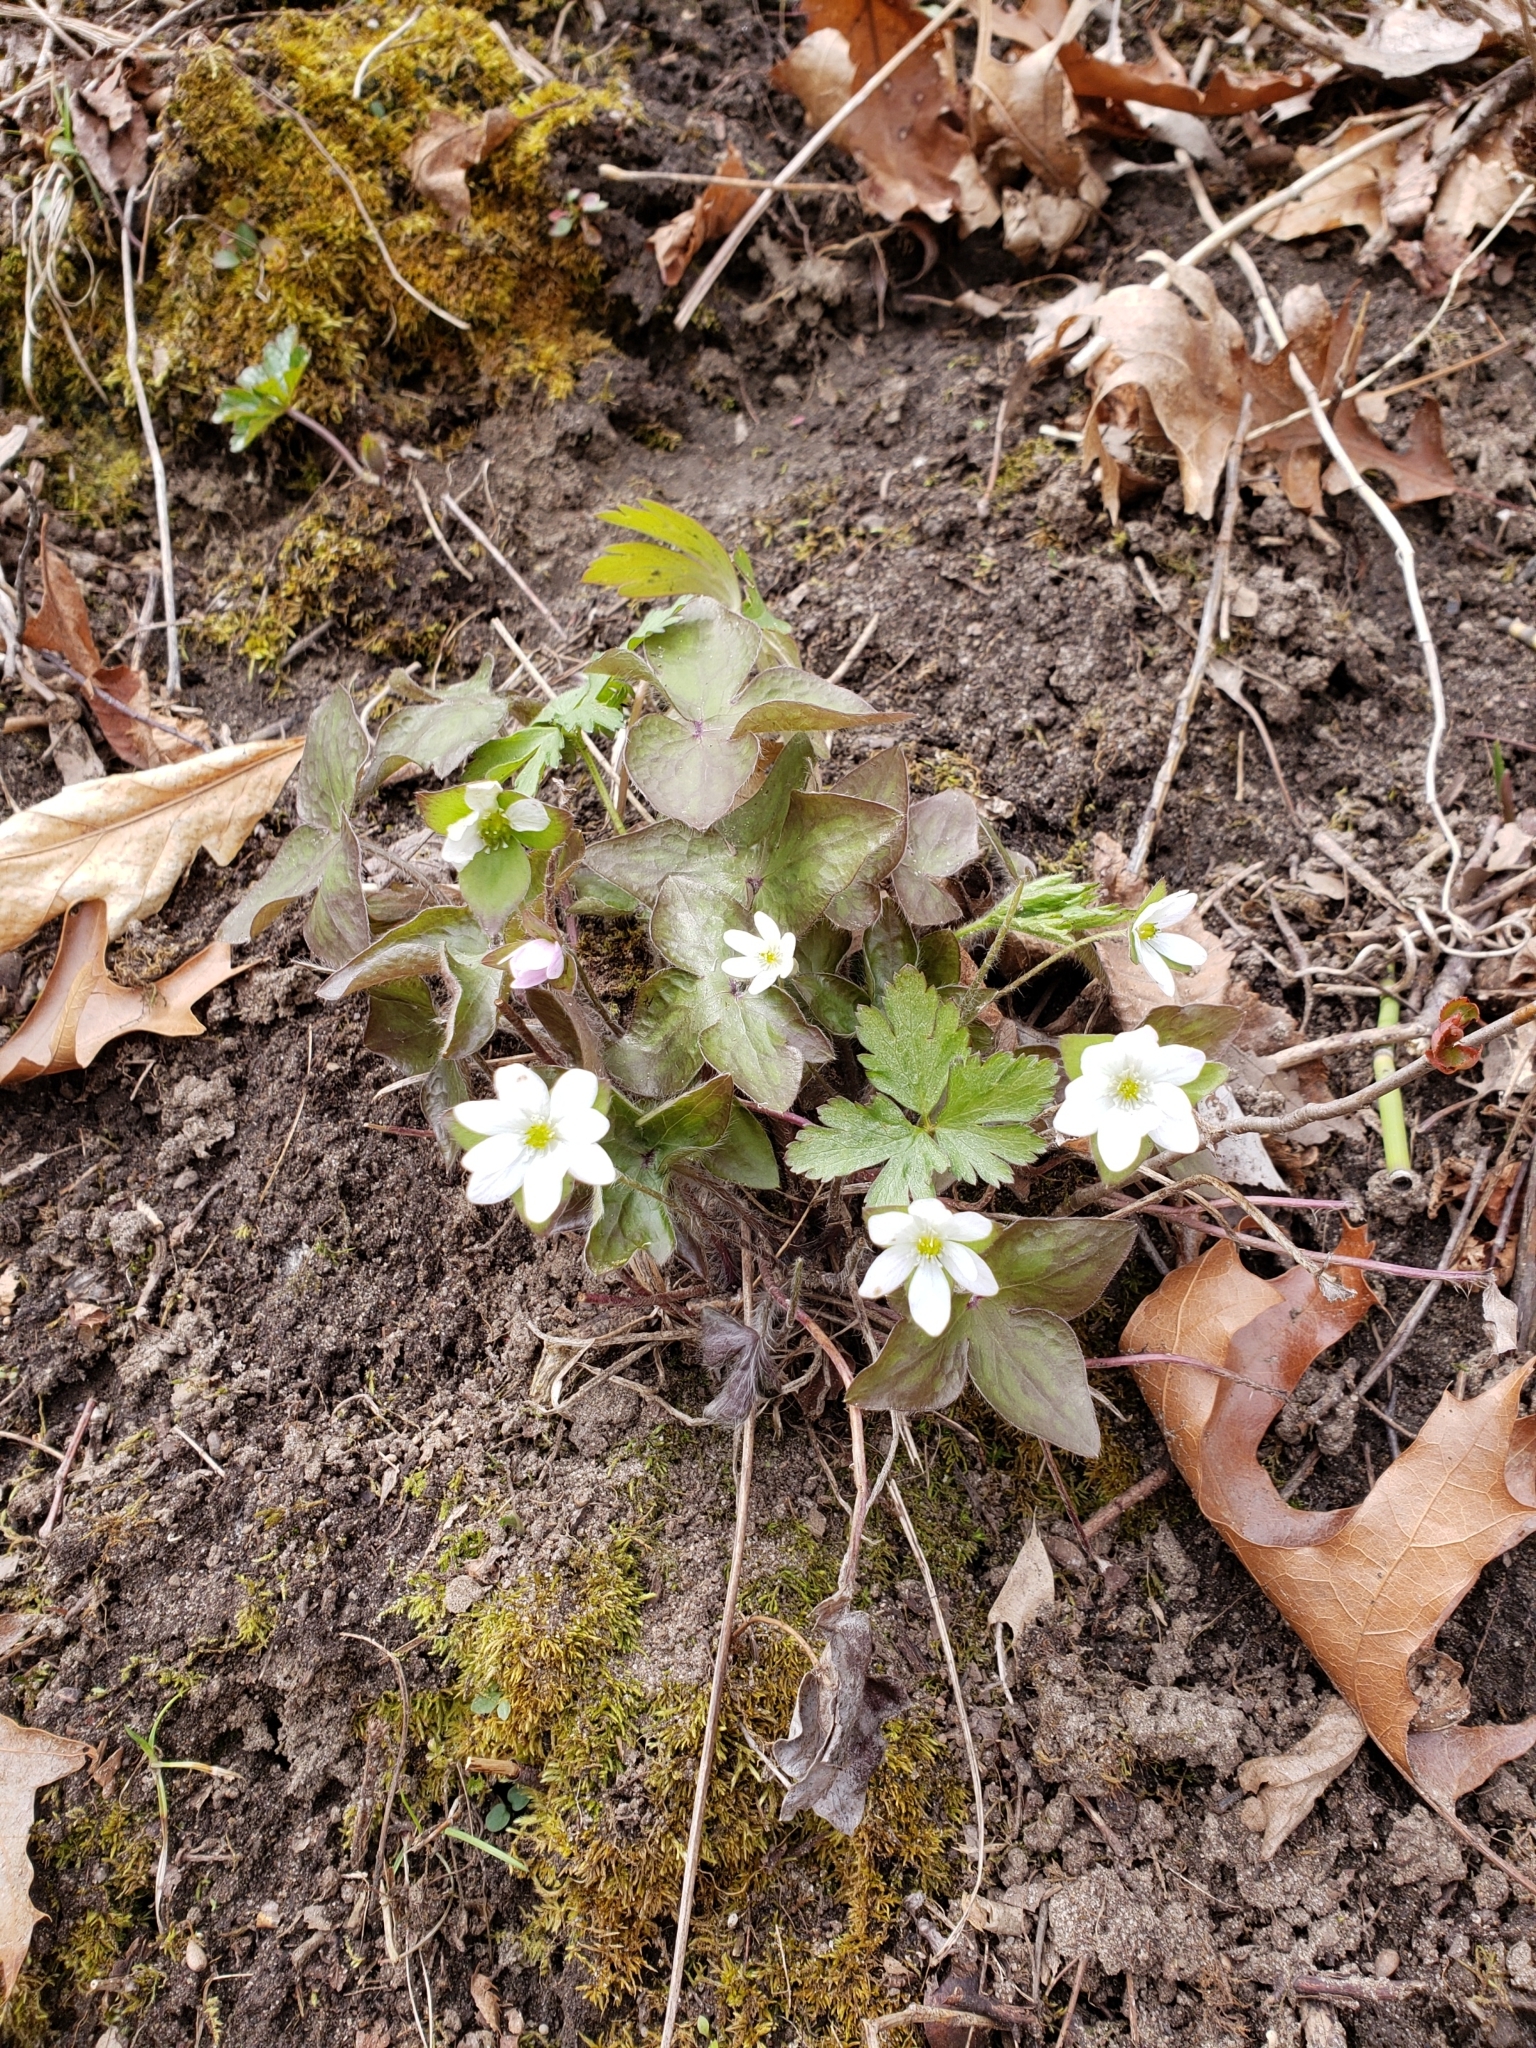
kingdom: Plantae
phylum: Tracheophyta
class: Magnoliopsida
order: Ranunculales
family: Ranunculaceae
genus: Hepatica
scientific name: Hepatica acutiloba
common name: Sharp-lobed hepatica
